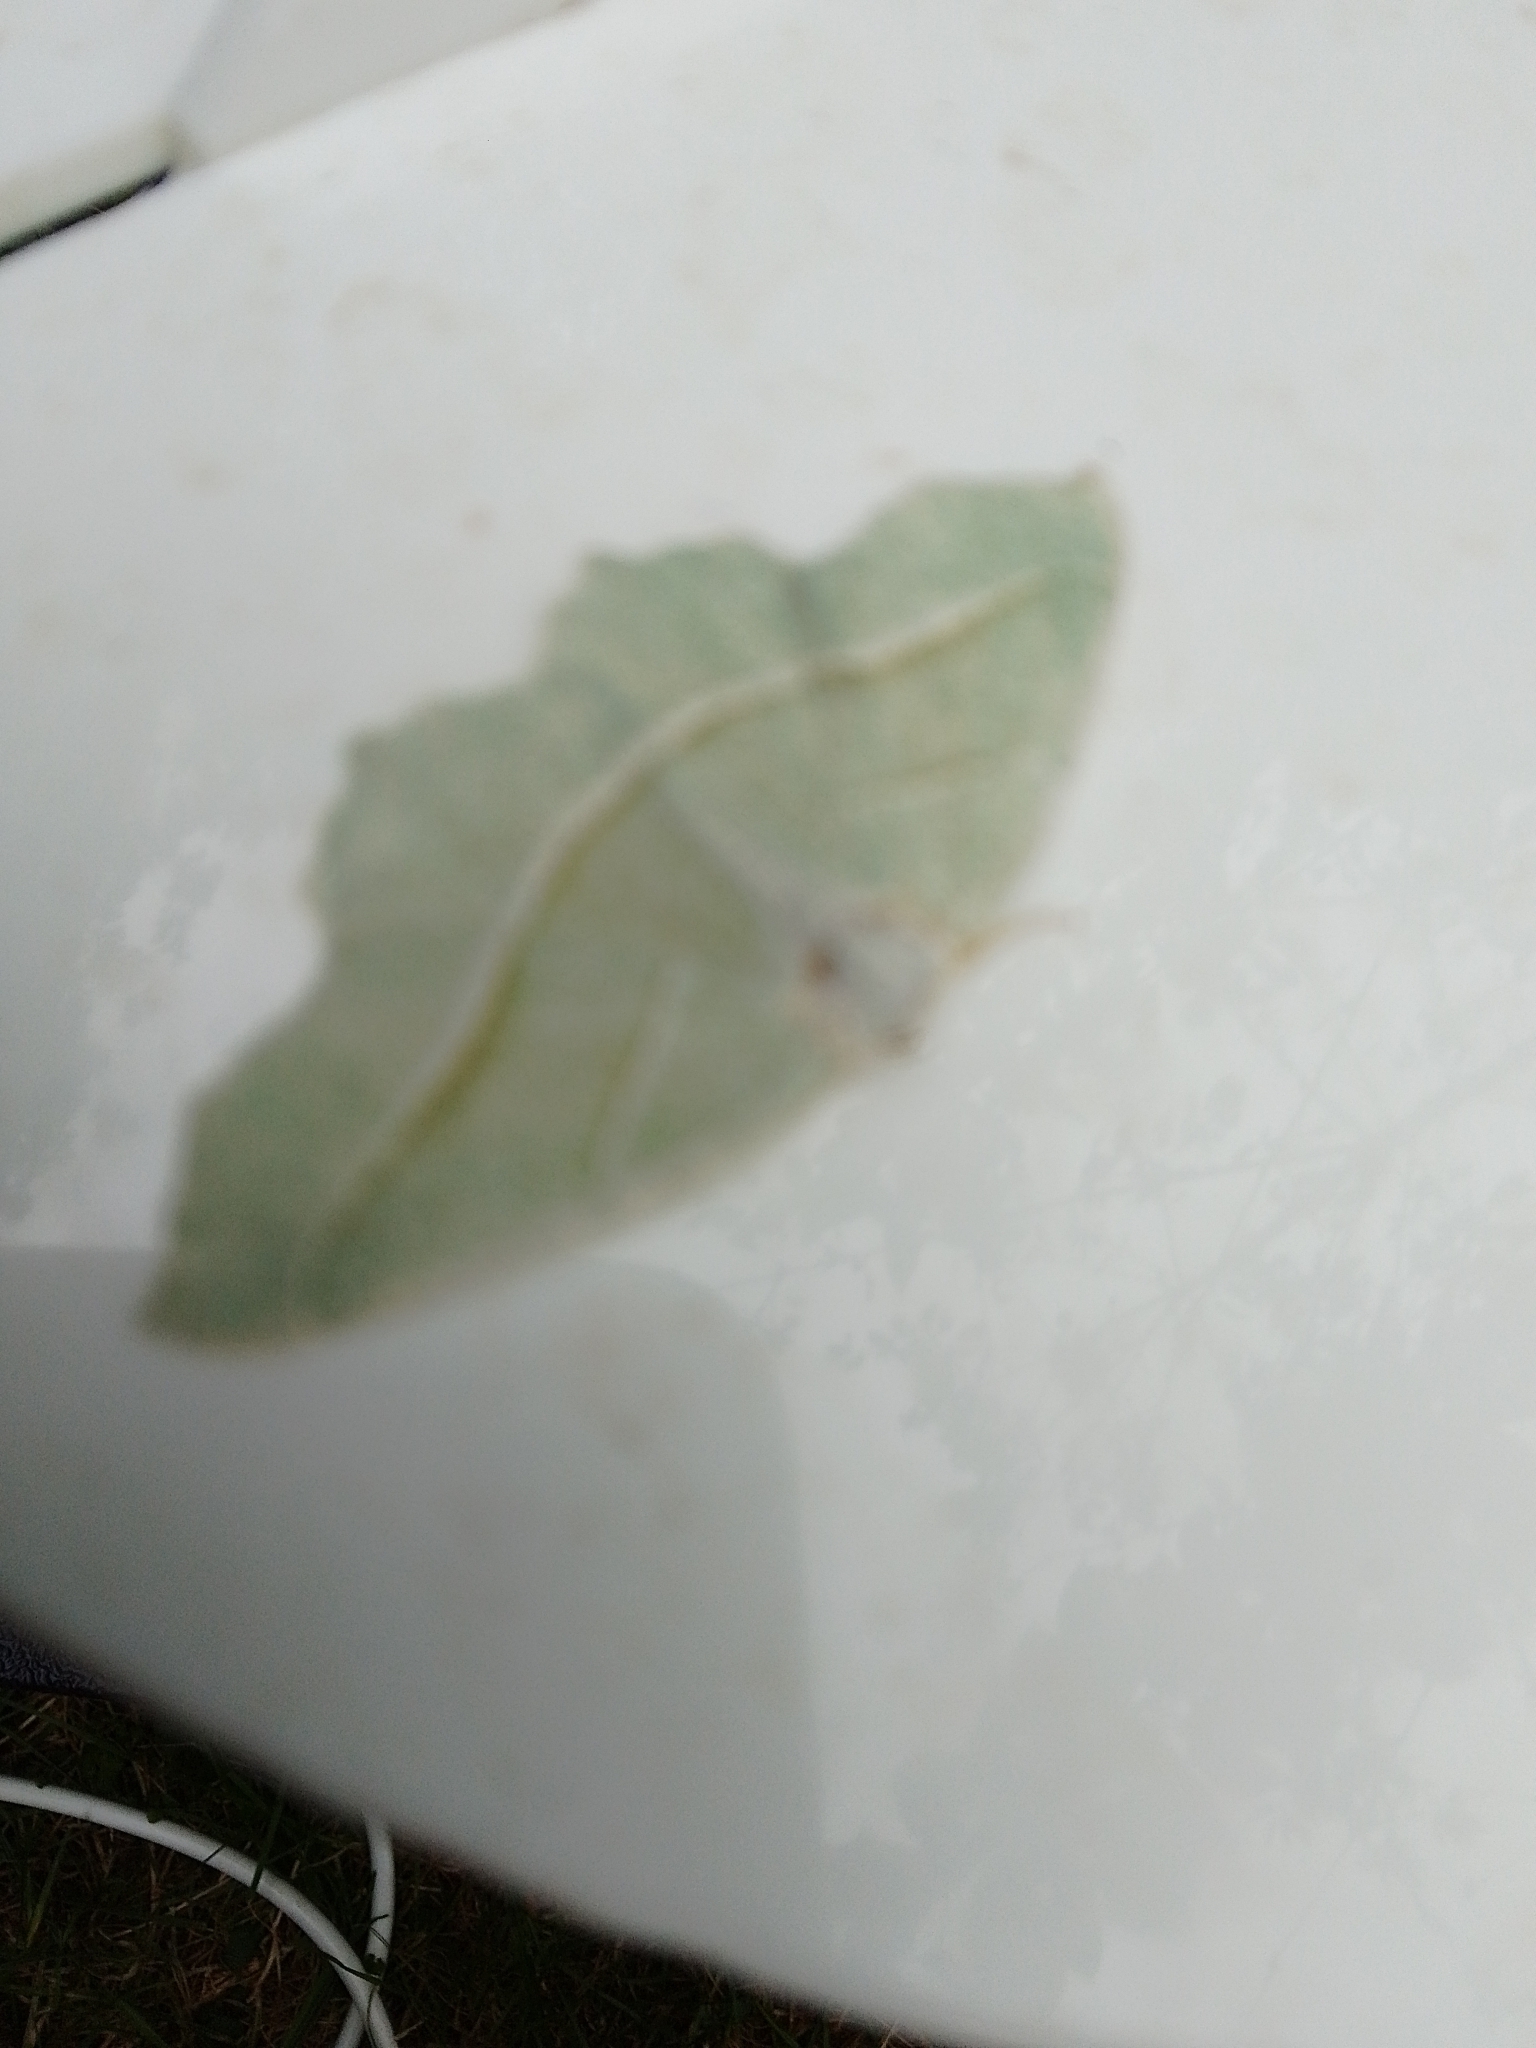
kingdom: Animalia
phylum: Arthropoda
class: Insecta
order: Lepidoptera
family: Geometridae
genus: Campaea
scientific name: Campaea margaritaria
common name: Light emerald
